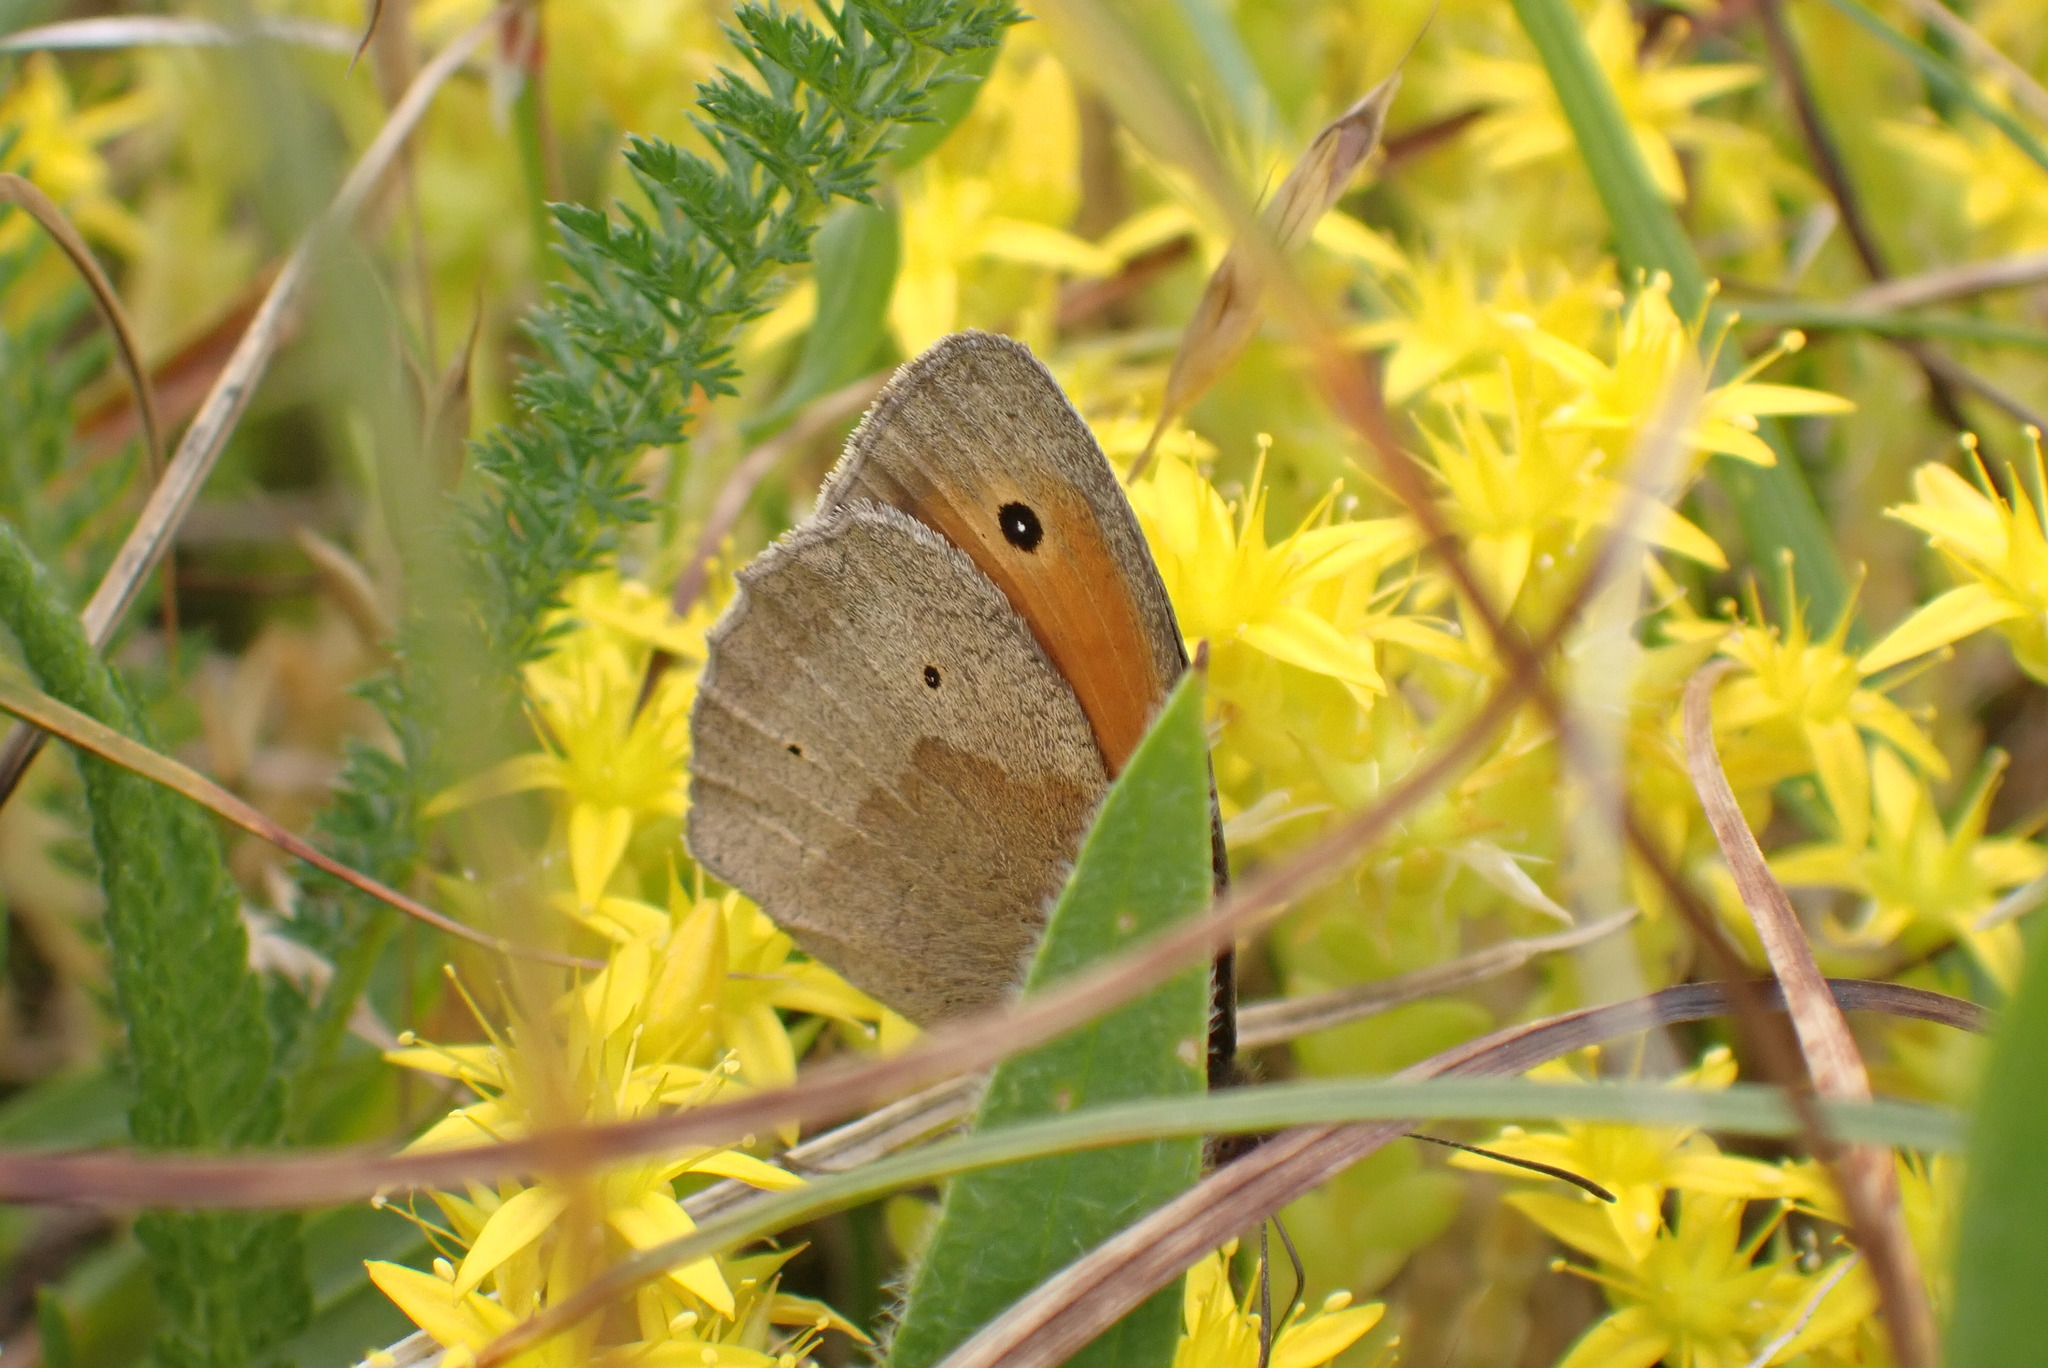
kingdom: Animalia
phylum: Arthropoda
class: Insecta
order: Lepidoptera
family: Nymphalidae
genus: Maniola
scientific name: Maniola jurtina
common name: Meadow brown
